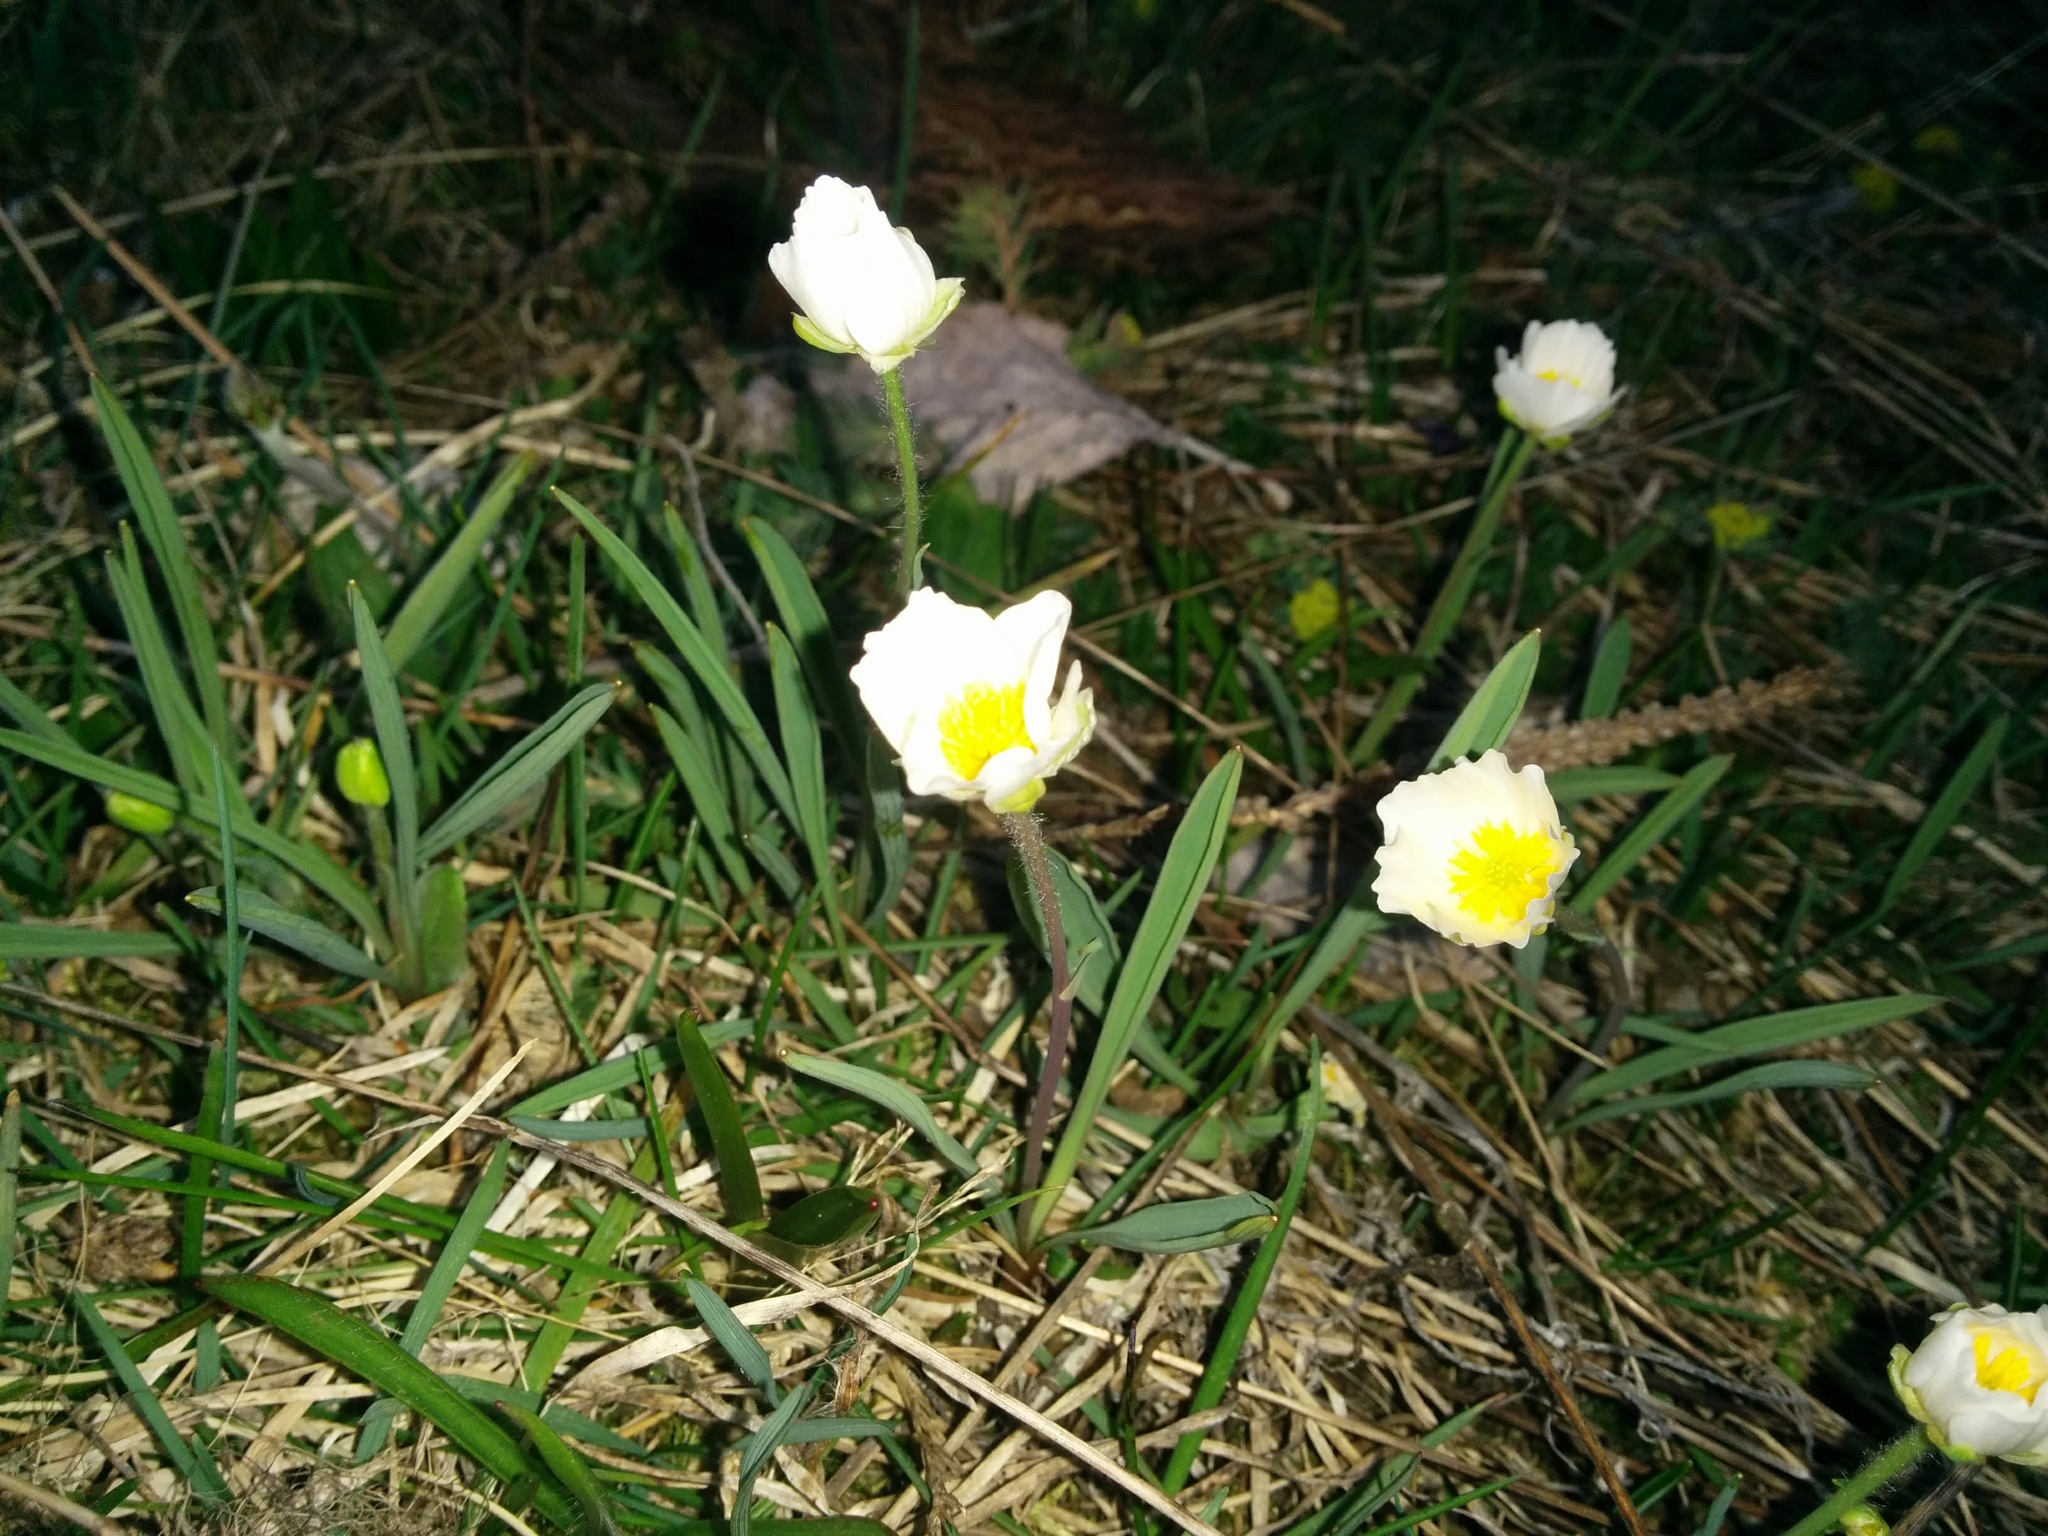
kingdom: Plantae
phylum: Tracheophyta
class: Magnoliopsida
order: Ranunculales
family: Ranunculaceae
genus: Ranunculus
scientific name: Ranunculus kuepferi
